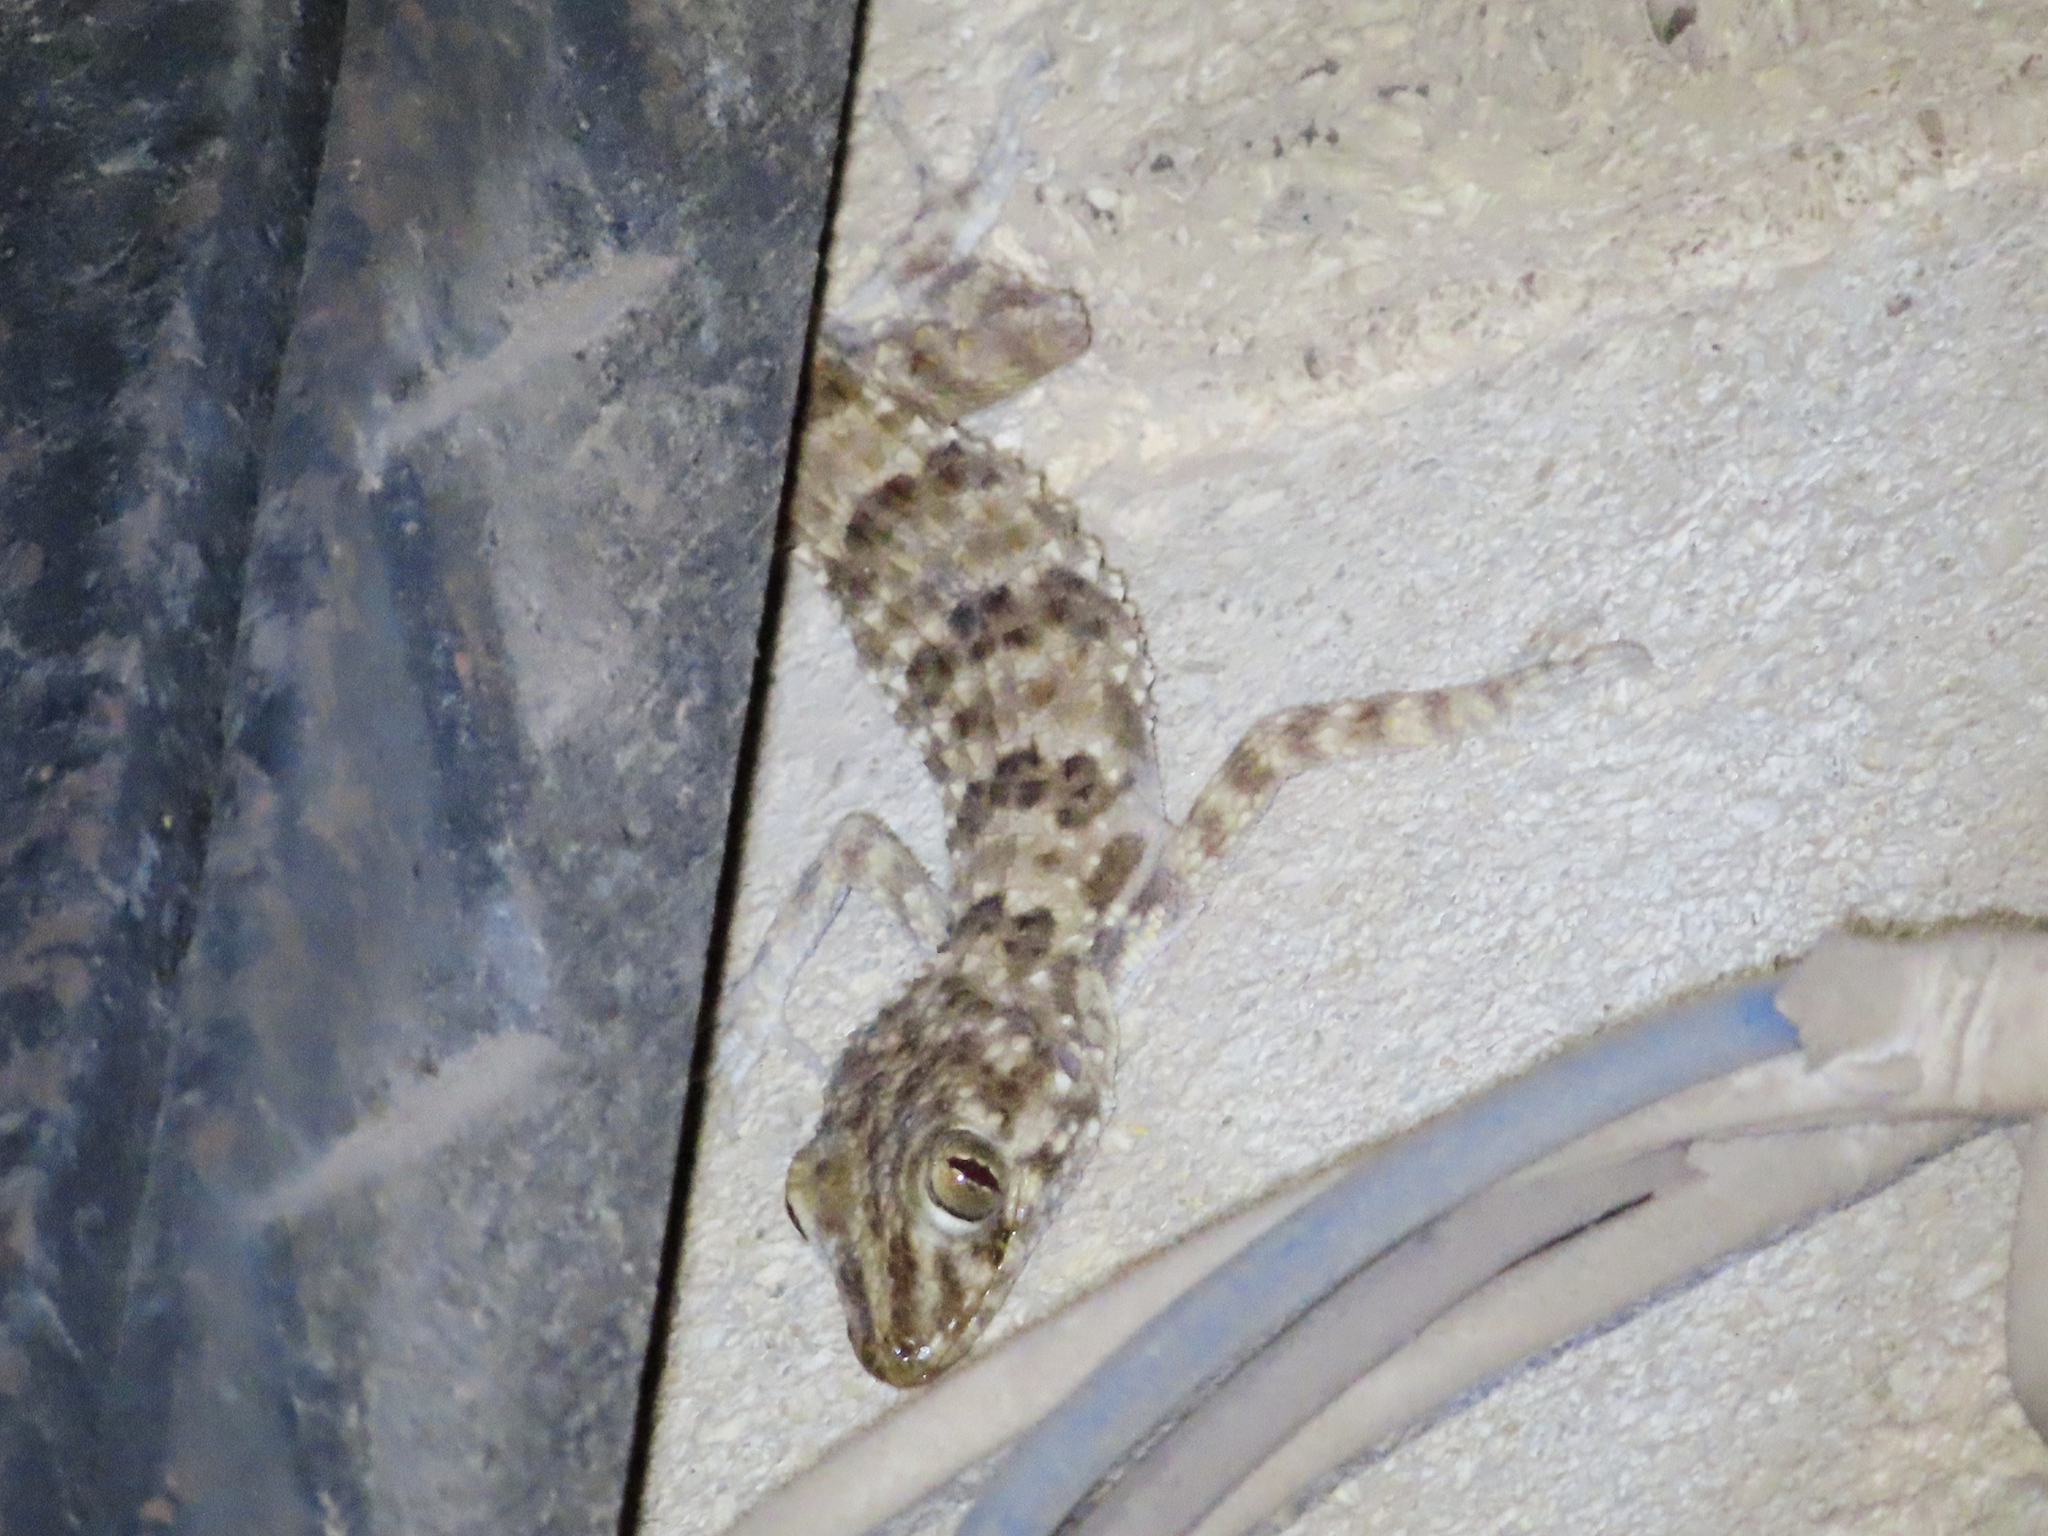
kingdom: Animalia
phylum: Chordata
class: Squamata
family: Gekkonidae
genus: Tenuidactylus
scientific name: Tenuidactylus caspius
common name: Caspian bent-toed gecko
